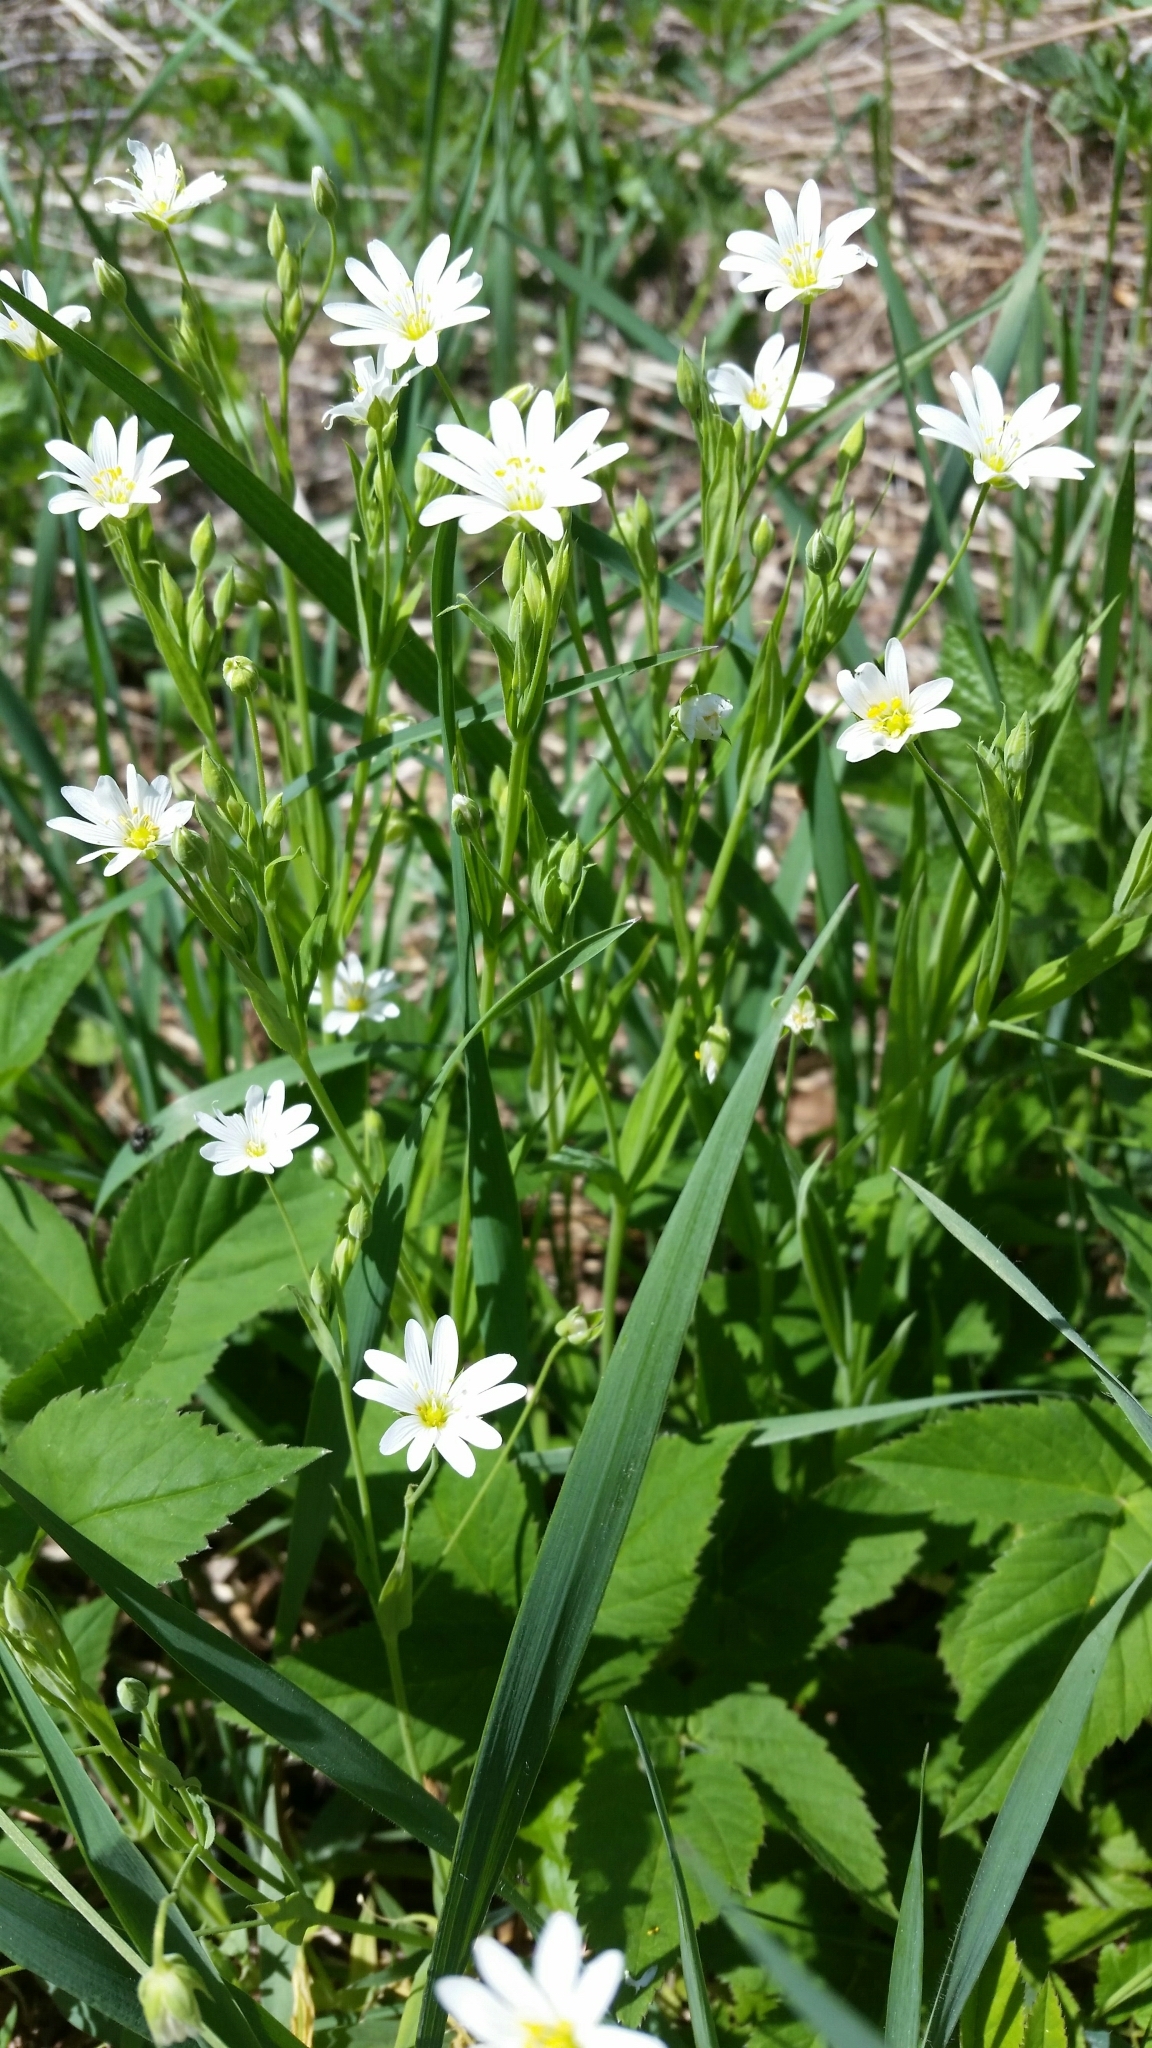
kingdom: Plantae
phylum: Tracheophyta
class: Magnoliopsida
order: Caryophyllales
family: Caryophyllaceae
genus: Rabelera
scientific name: Rabelera holostea
